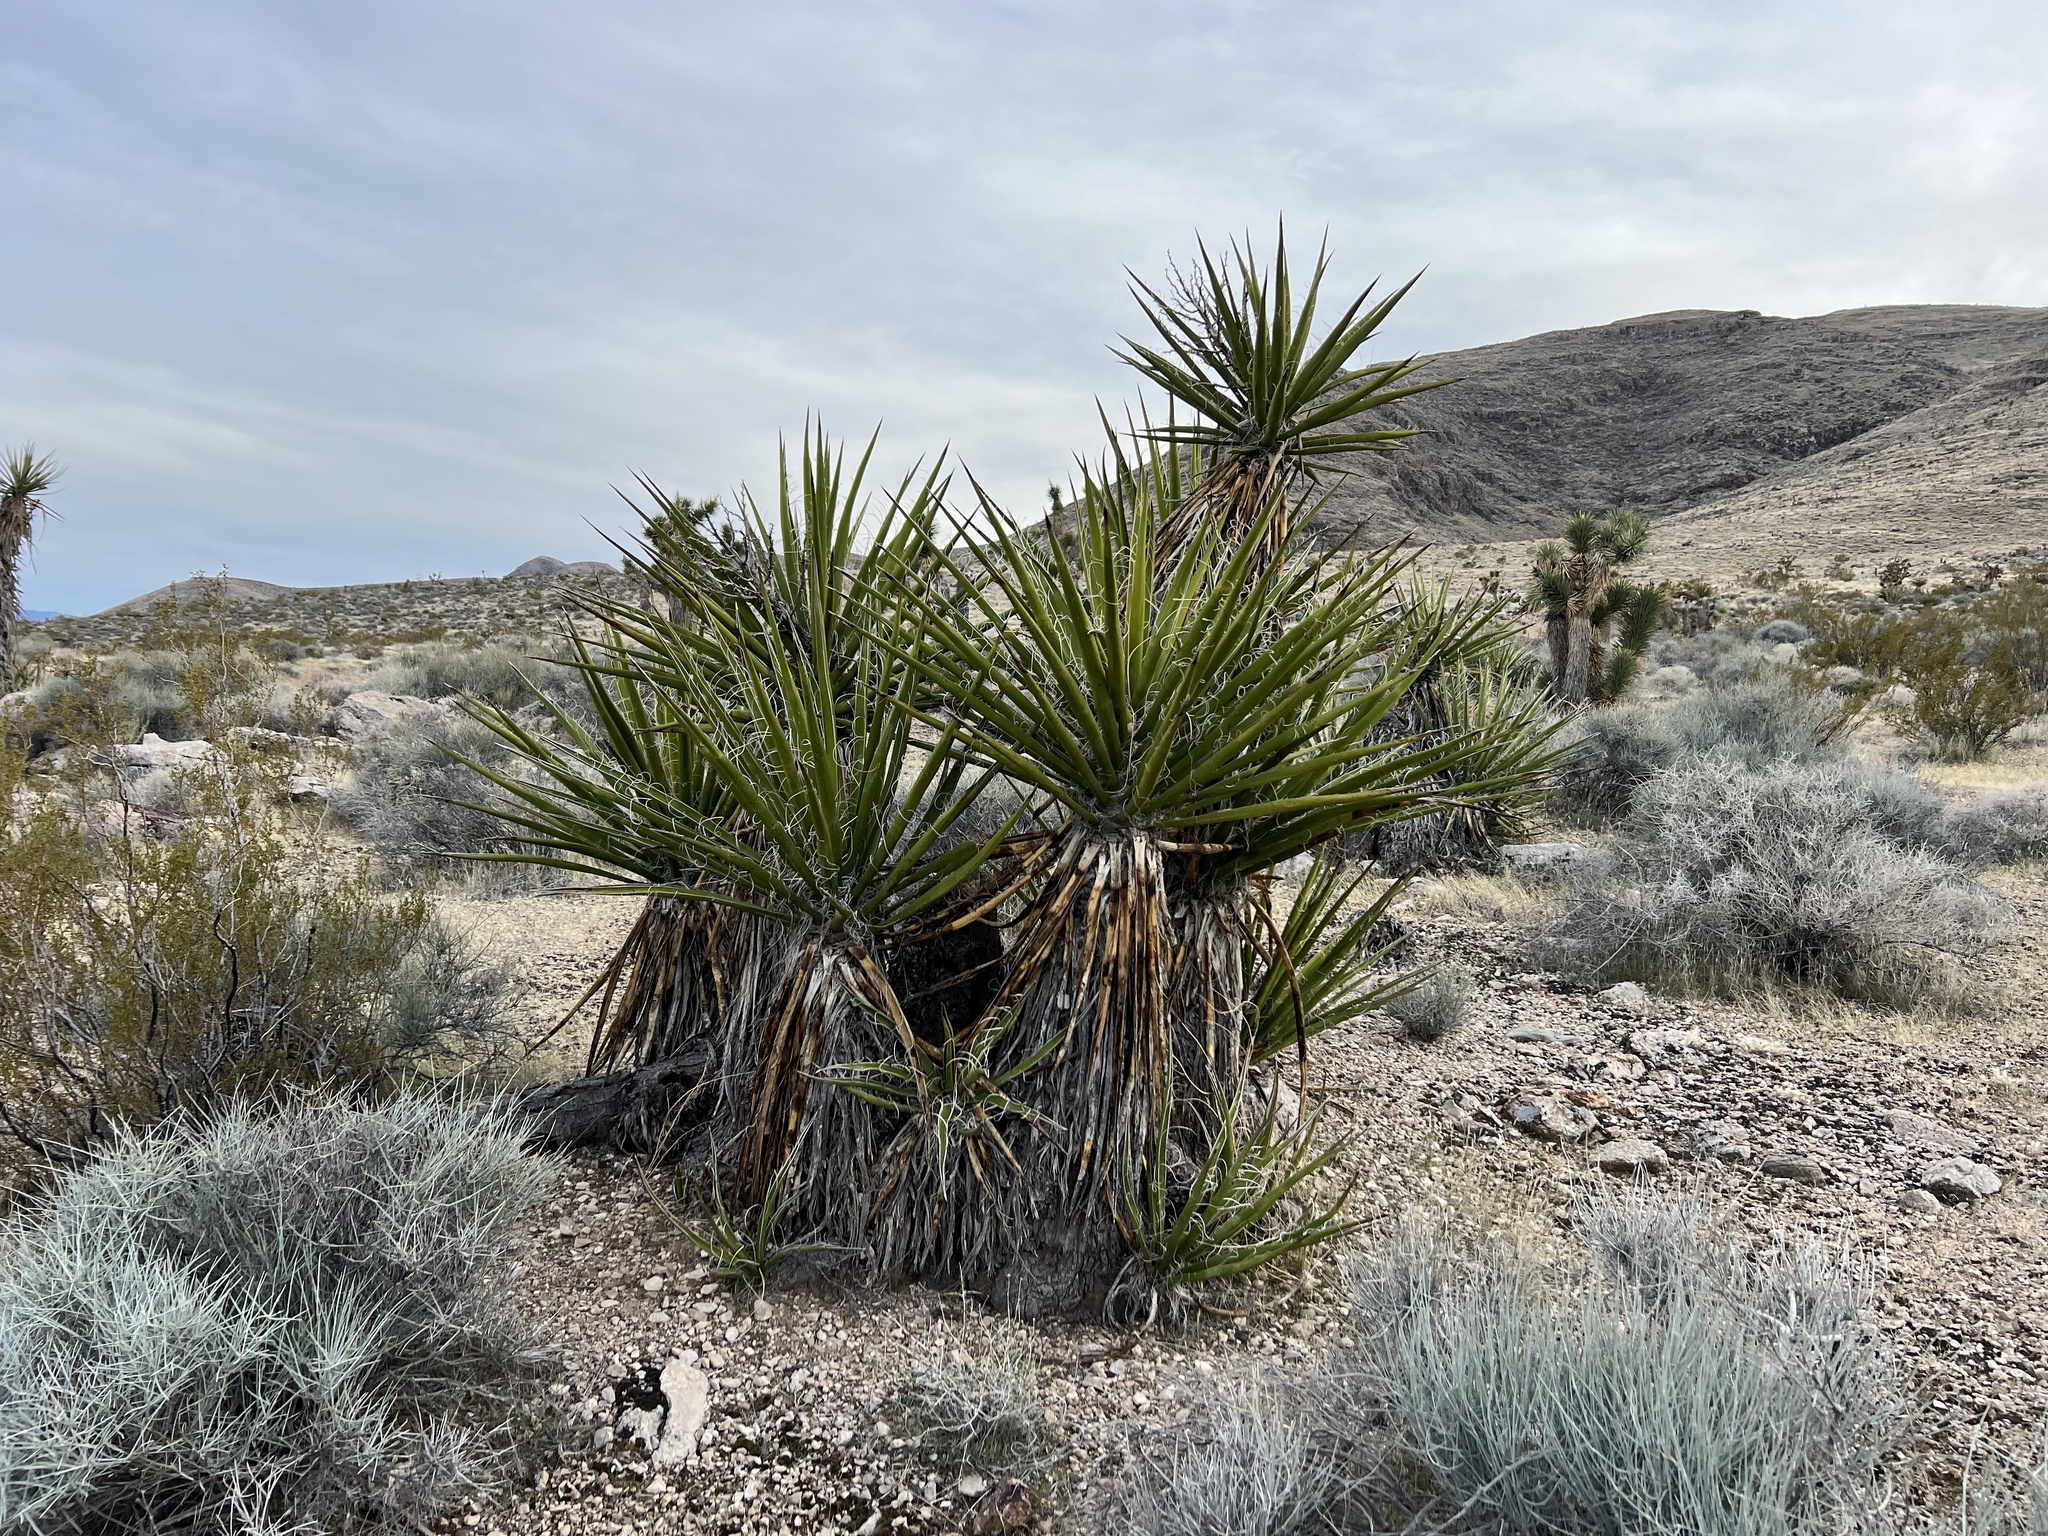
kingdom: Plantae
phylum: Tracheophyta
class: Liliopsida
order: Asparagales
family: Asparagaceae
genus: Yucca
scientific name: Yucca schidigera
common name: Mojave yucca
